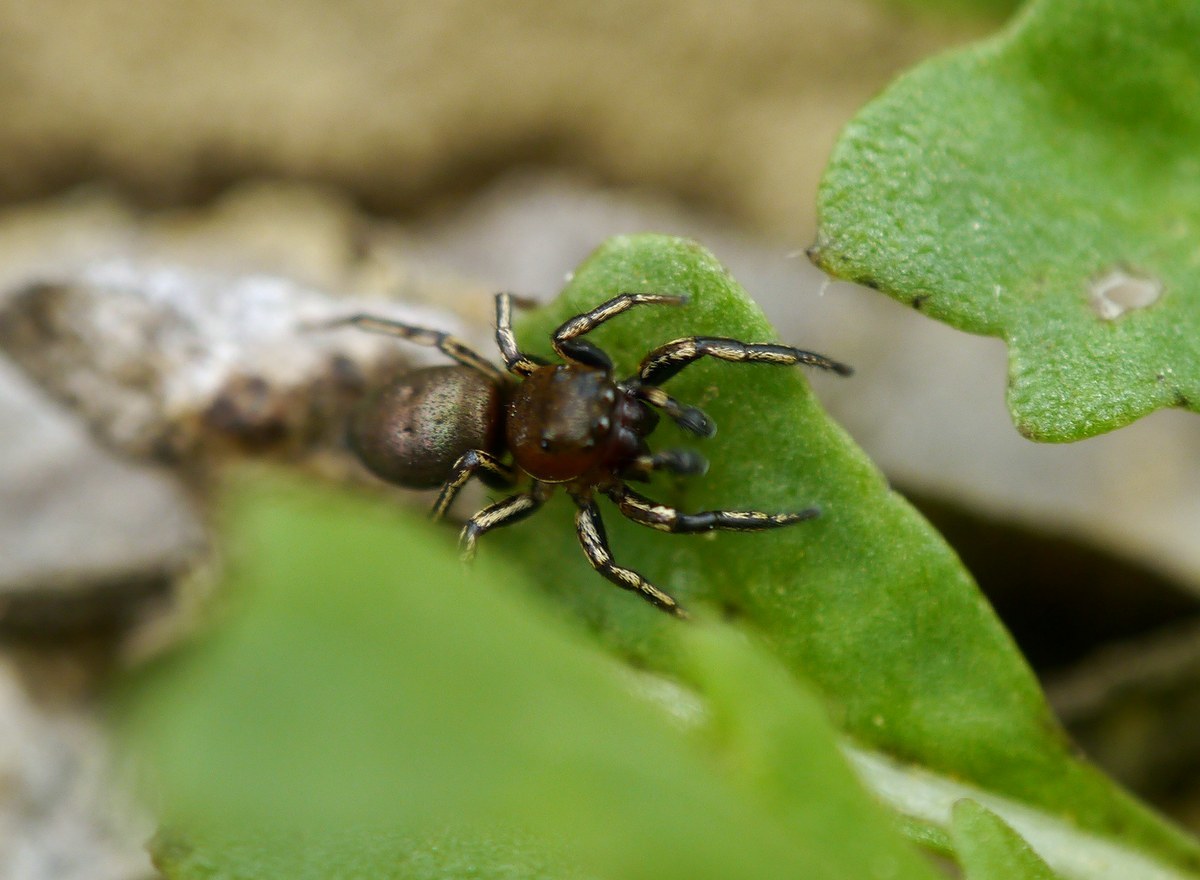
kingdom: Animalia
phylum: Arthropoda
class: Arachnida
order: Araneae
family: Salticidae
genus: Heliophanus
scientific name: Heliophanus patagiatus
